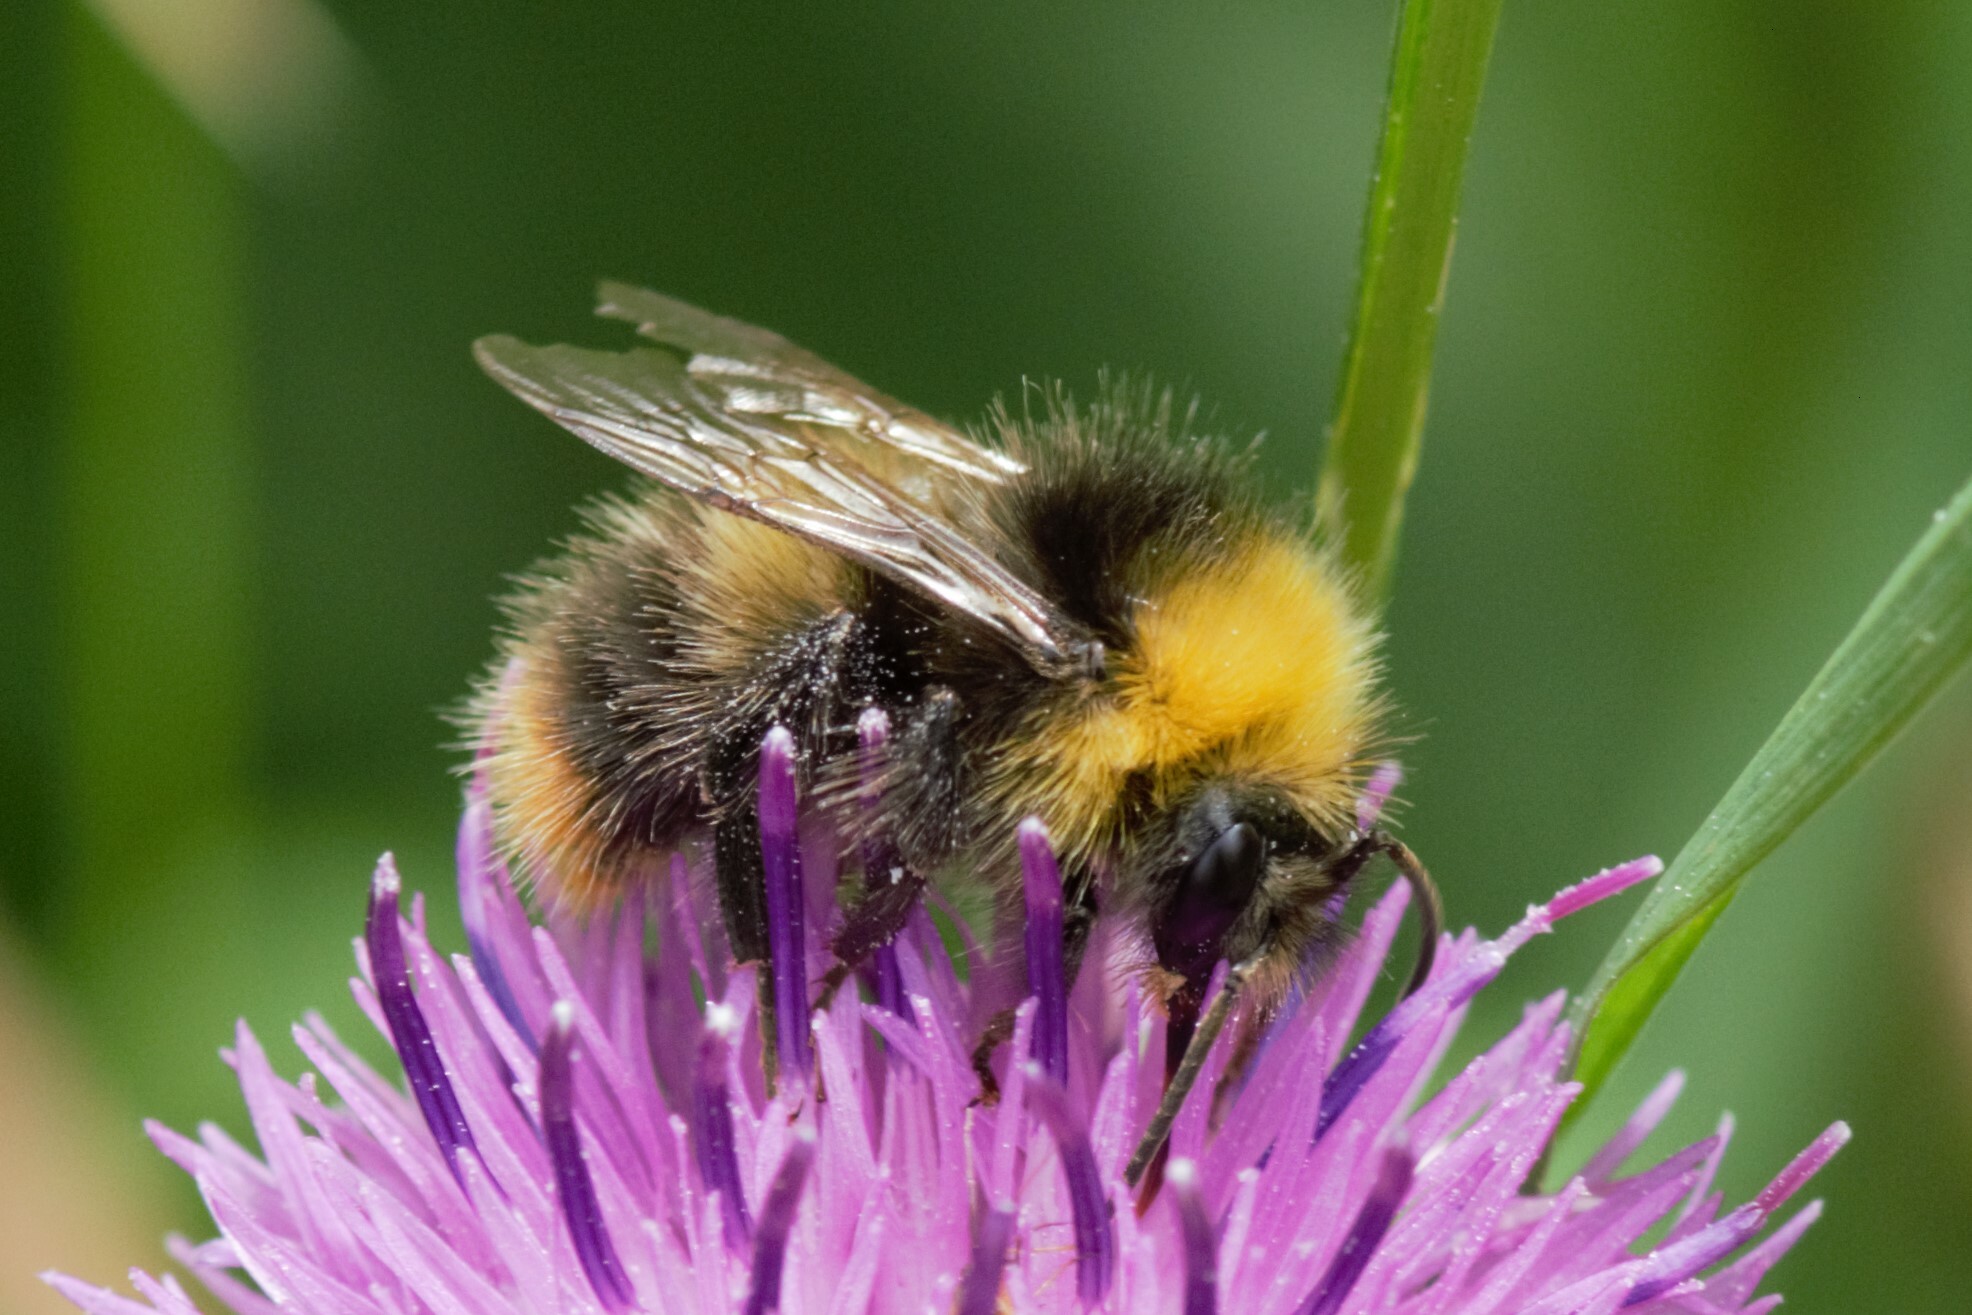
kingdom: Animalia
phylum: Arthropoda
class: Insecta
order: Hymenoptera
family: Apidae
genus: Bombus
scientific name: Bombus pratorum
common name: Early humble-bee
